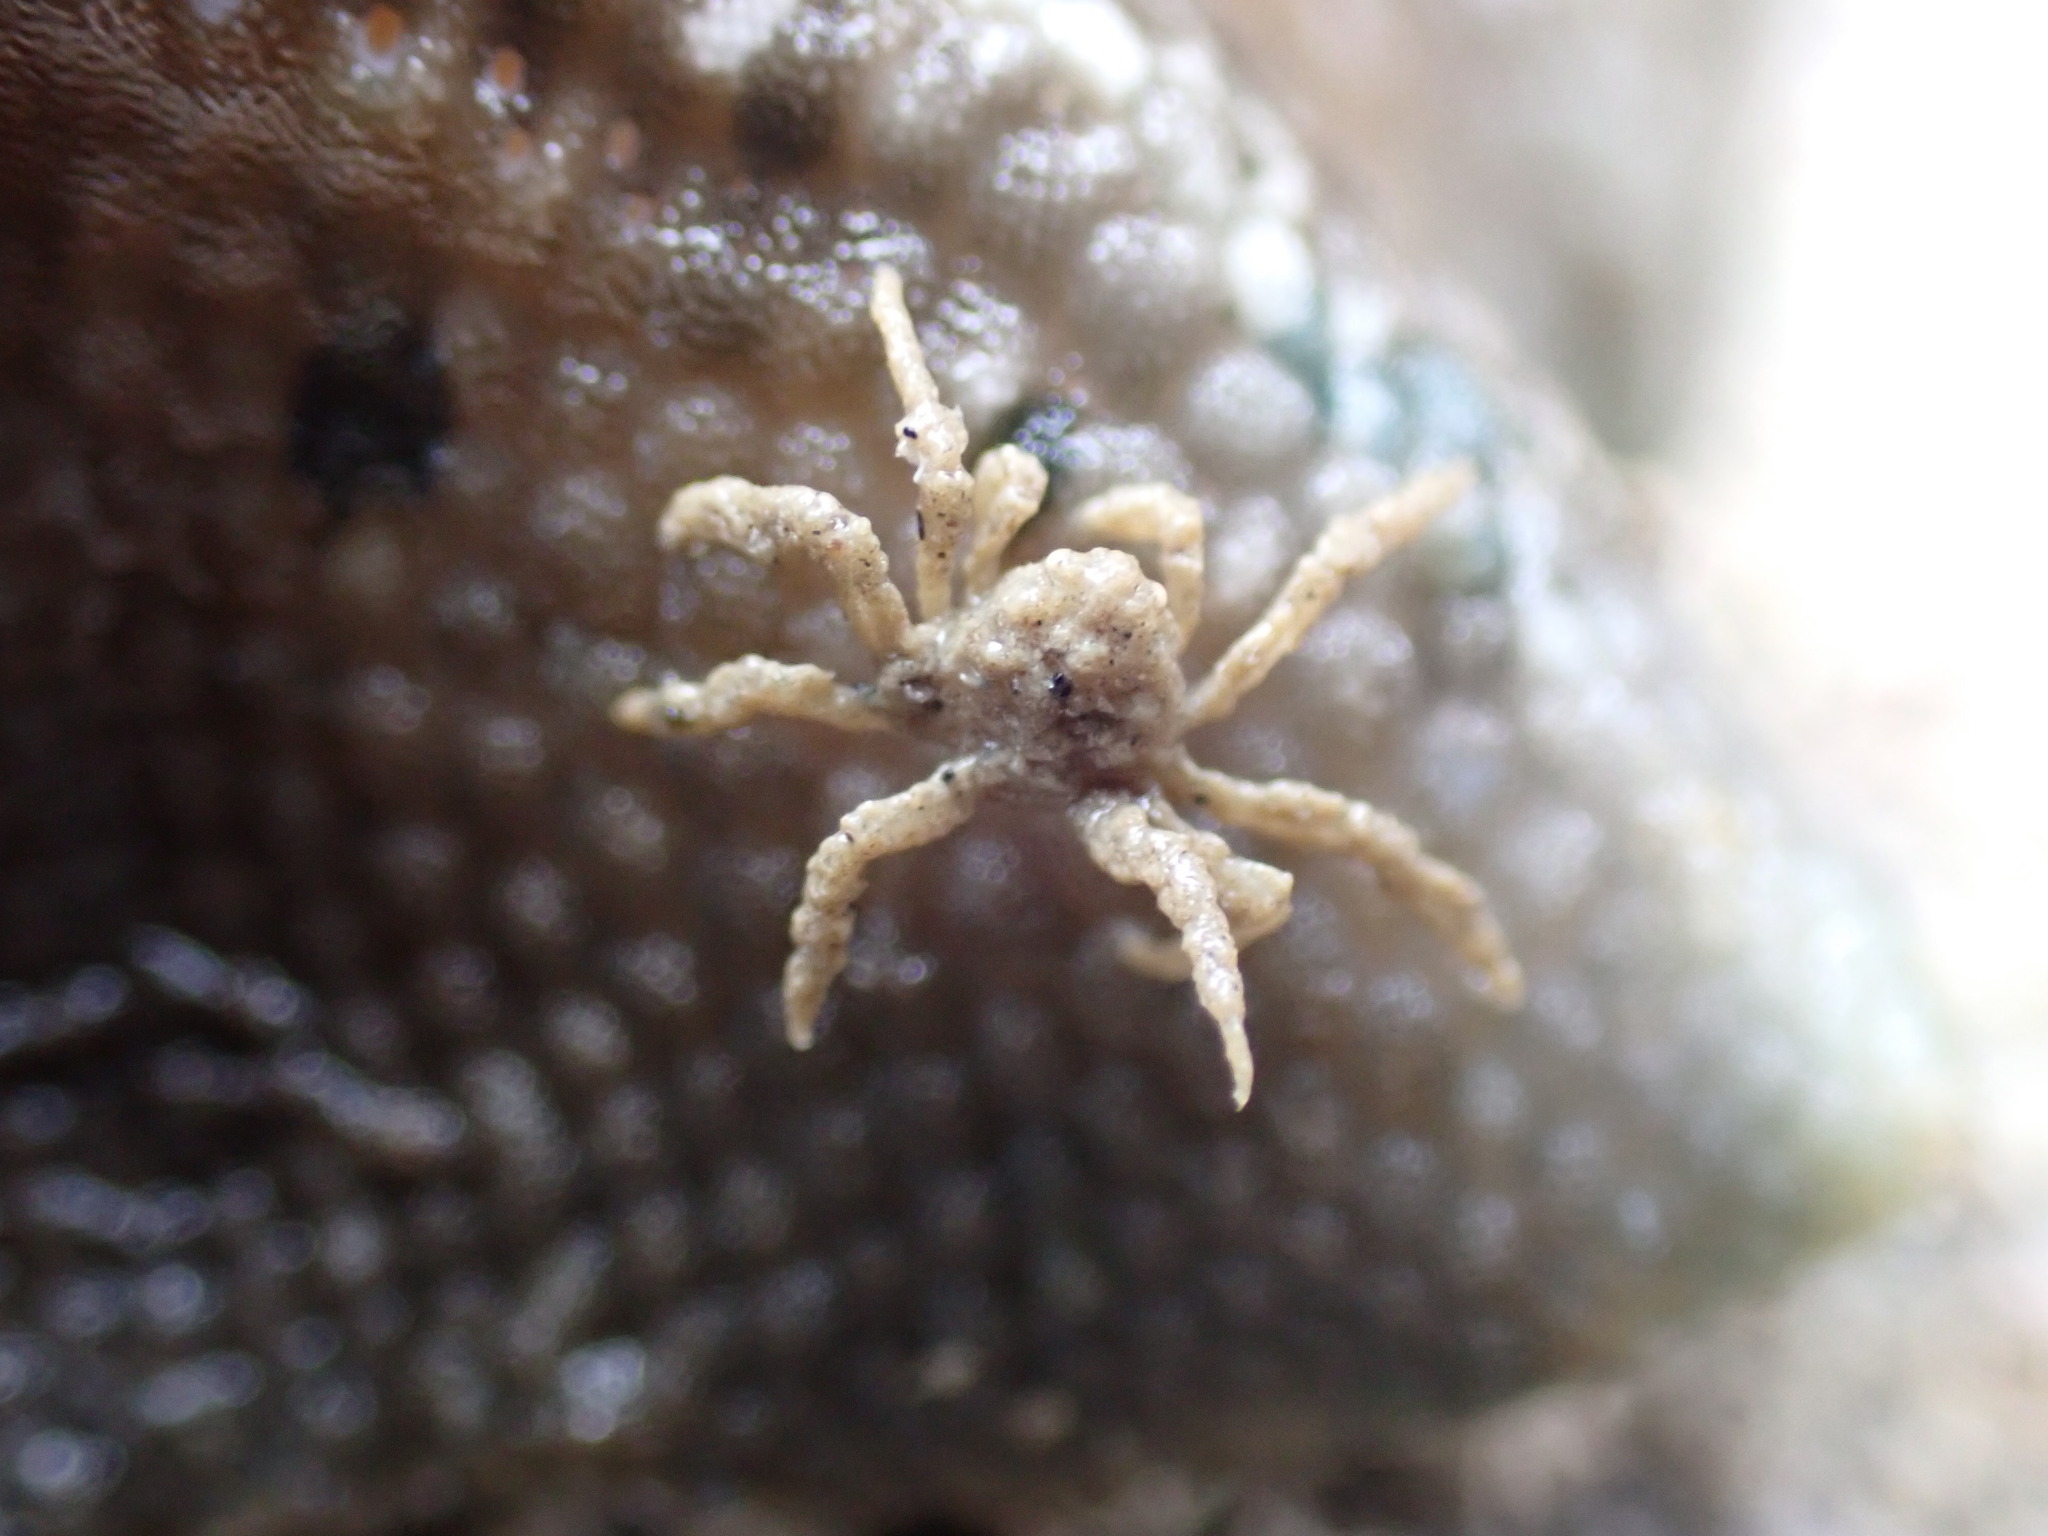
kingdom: Animalia
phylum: Arthropoda
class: Malacostraca
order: Decapoda
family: Hymenosomatidae
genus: Neohymenicus
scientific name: Neohymenicus pubescens
